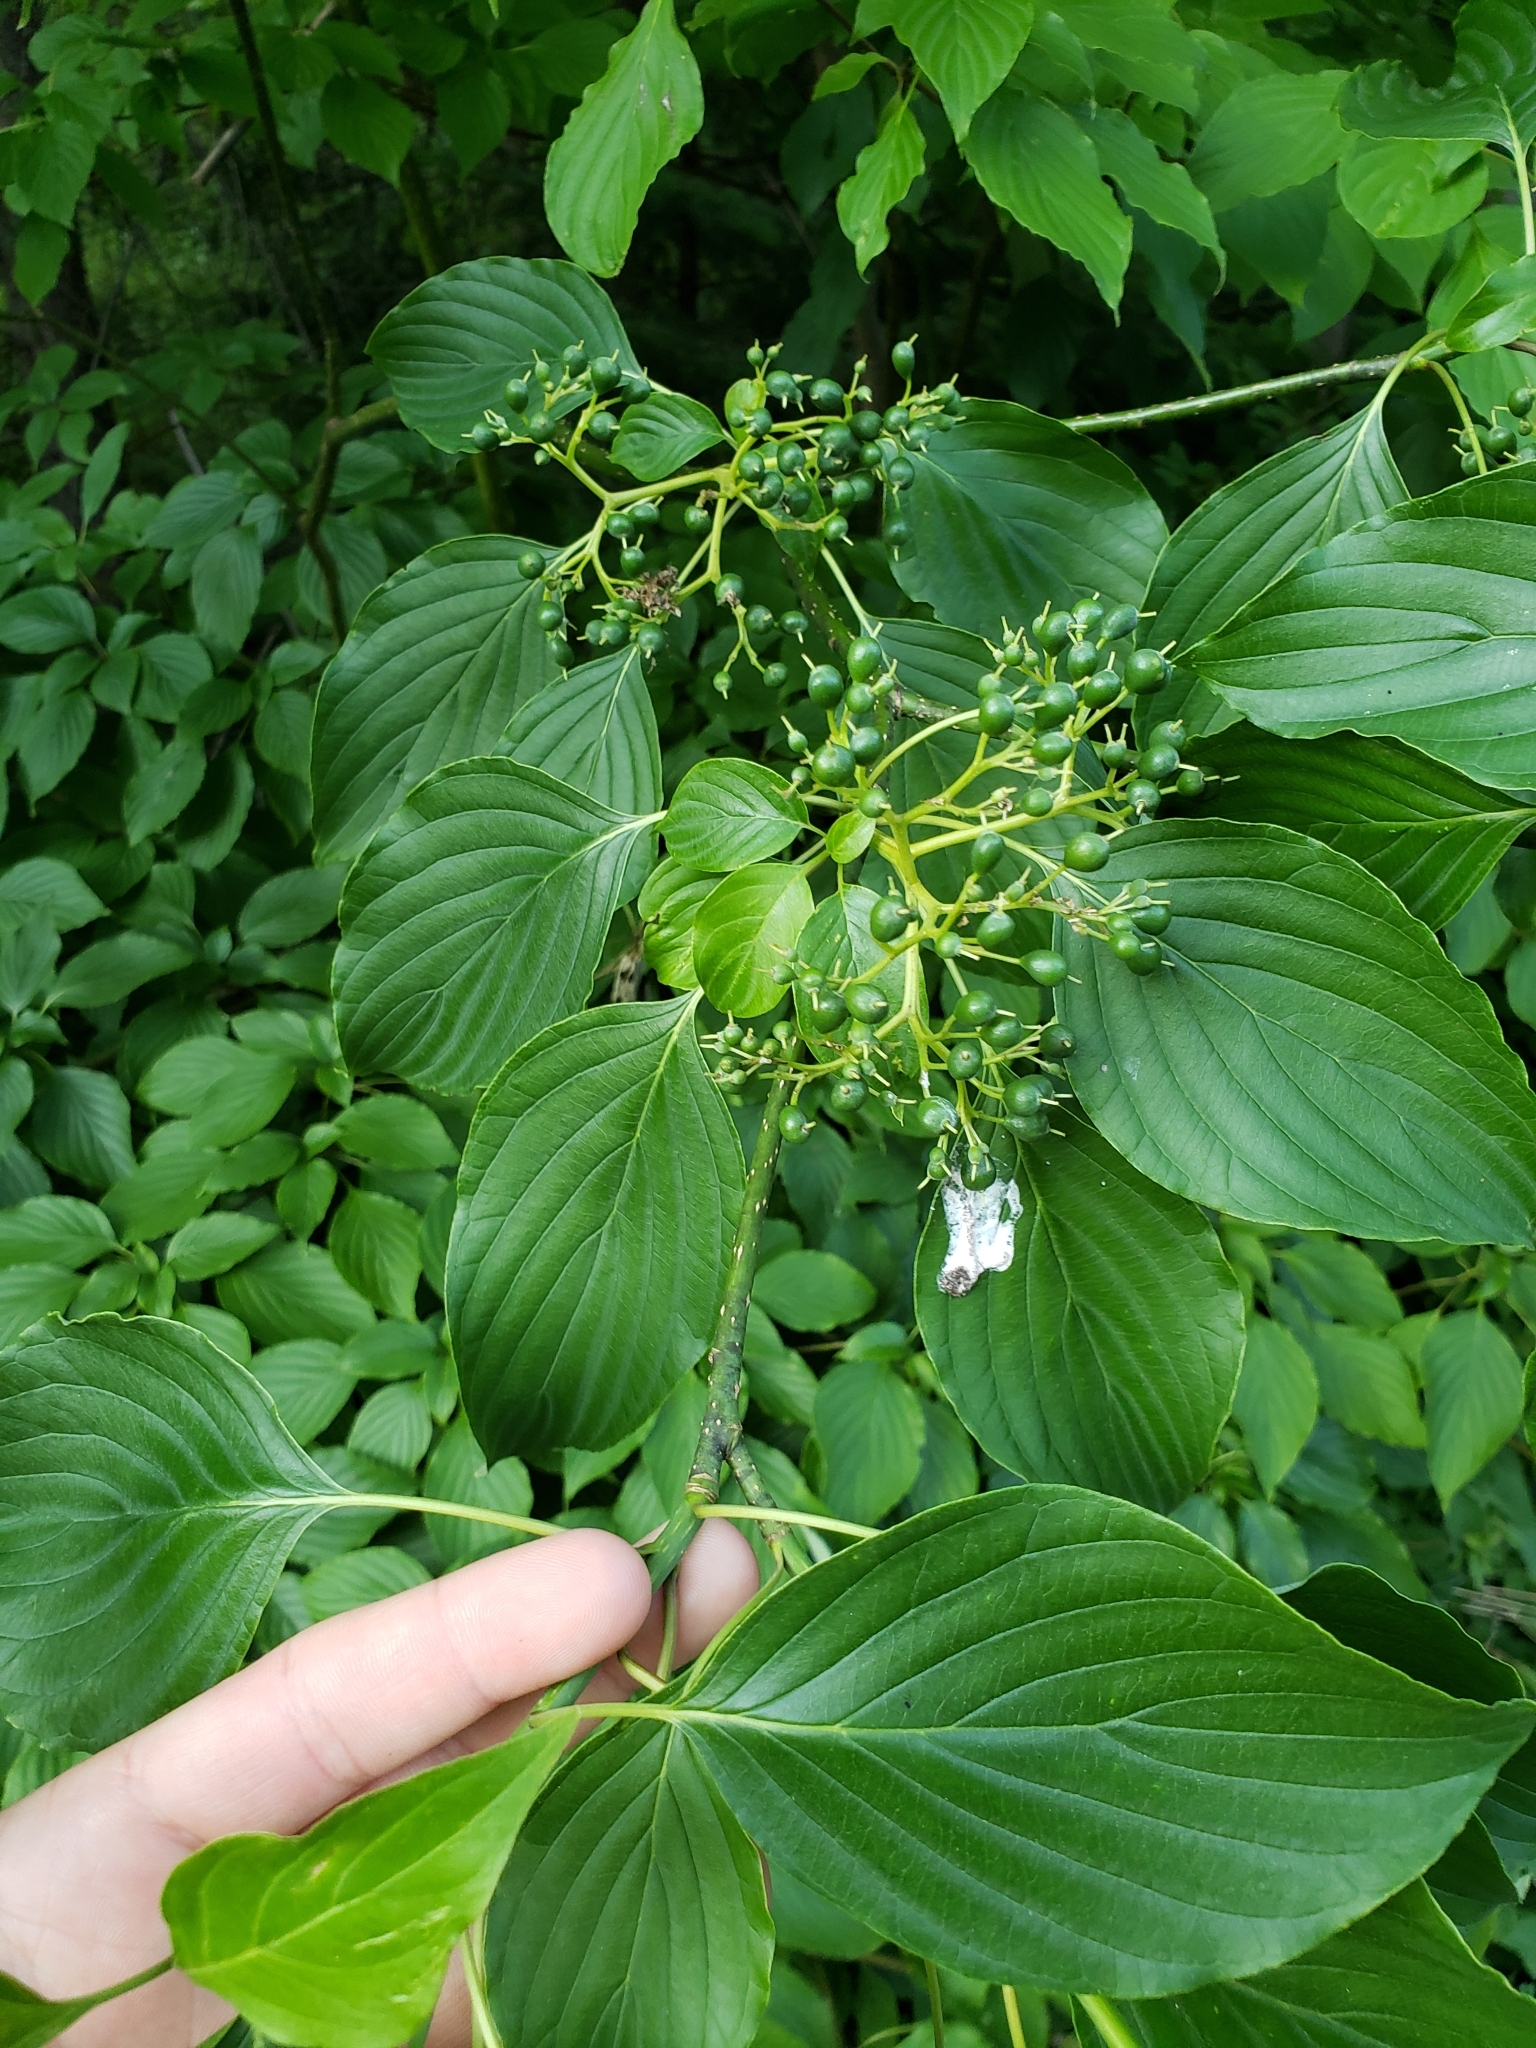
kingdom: Plantae
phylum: Tracheophyta
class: Magnoliopsida
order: Cornales
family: Cornaceae
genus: Cornus
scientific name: Cornus alternifolia
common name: Pagoda dogwood
